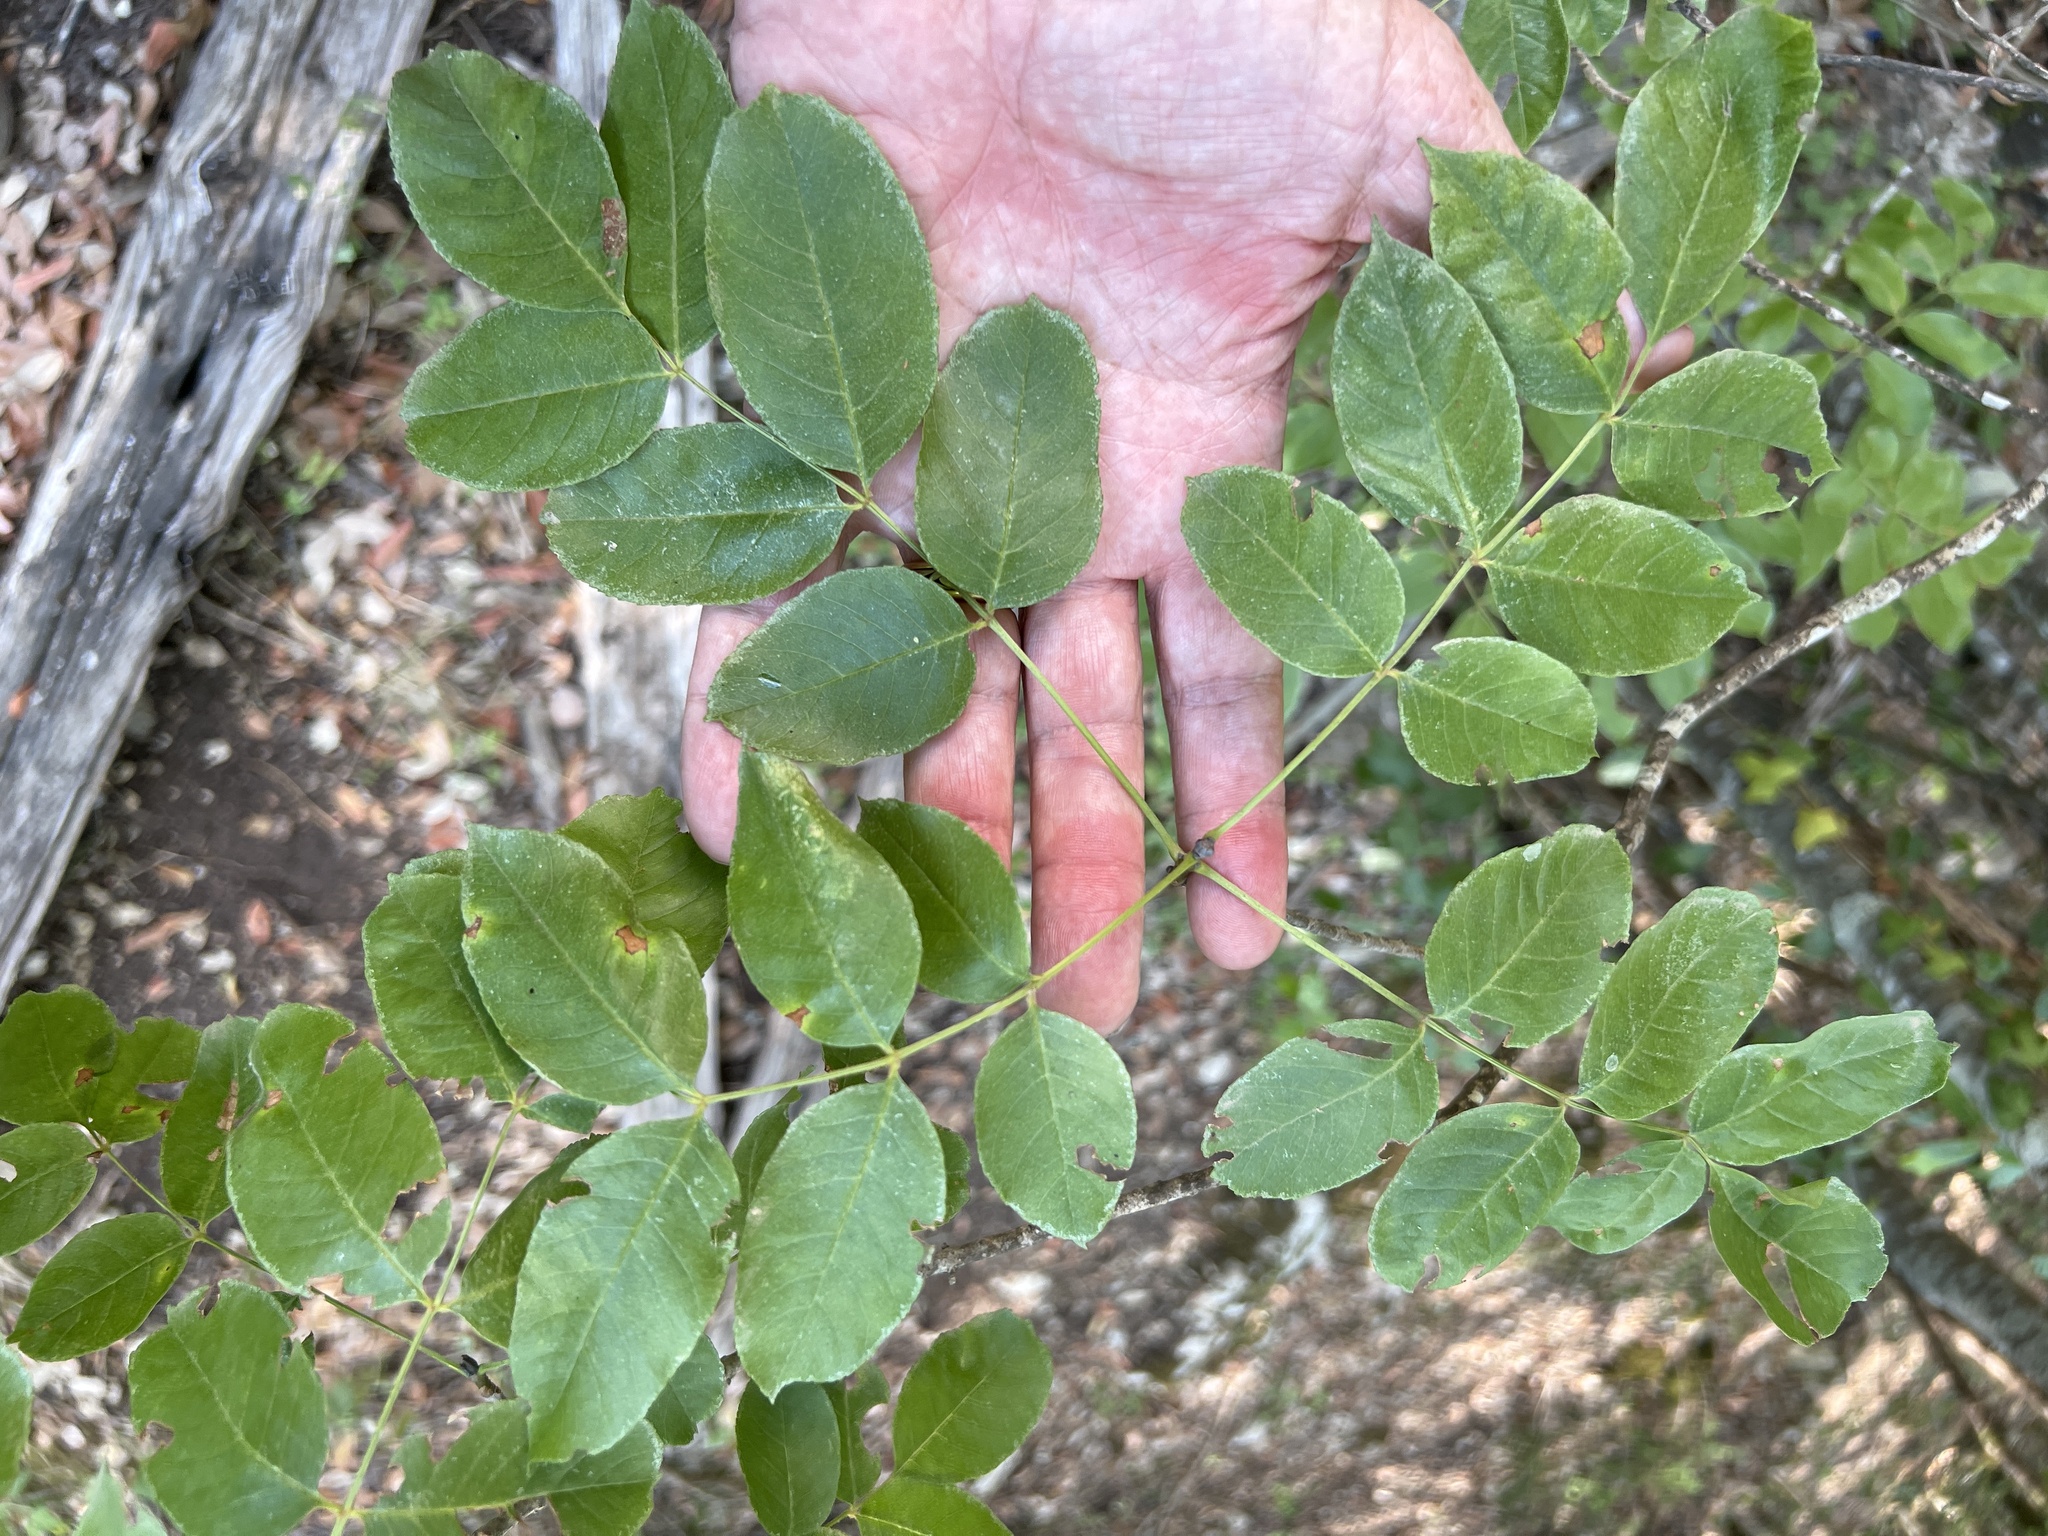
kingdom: Plantae
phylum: Tracheophyta
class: Magnoliopsida
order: Lamiales
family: Oleaceae
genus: Fraxinus
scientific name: Fraxinus ornus
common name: Manna ash
